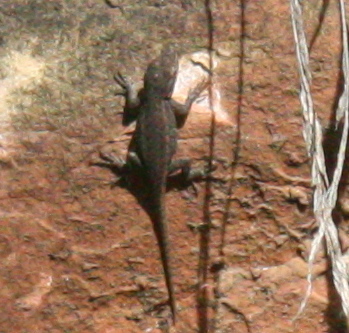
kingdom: Animalia
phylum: Chordata
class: Squamata
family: Phrynosomatidae
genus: Sceloporus
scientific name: Sceloporus tristichus
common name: Plateau fence lizard
